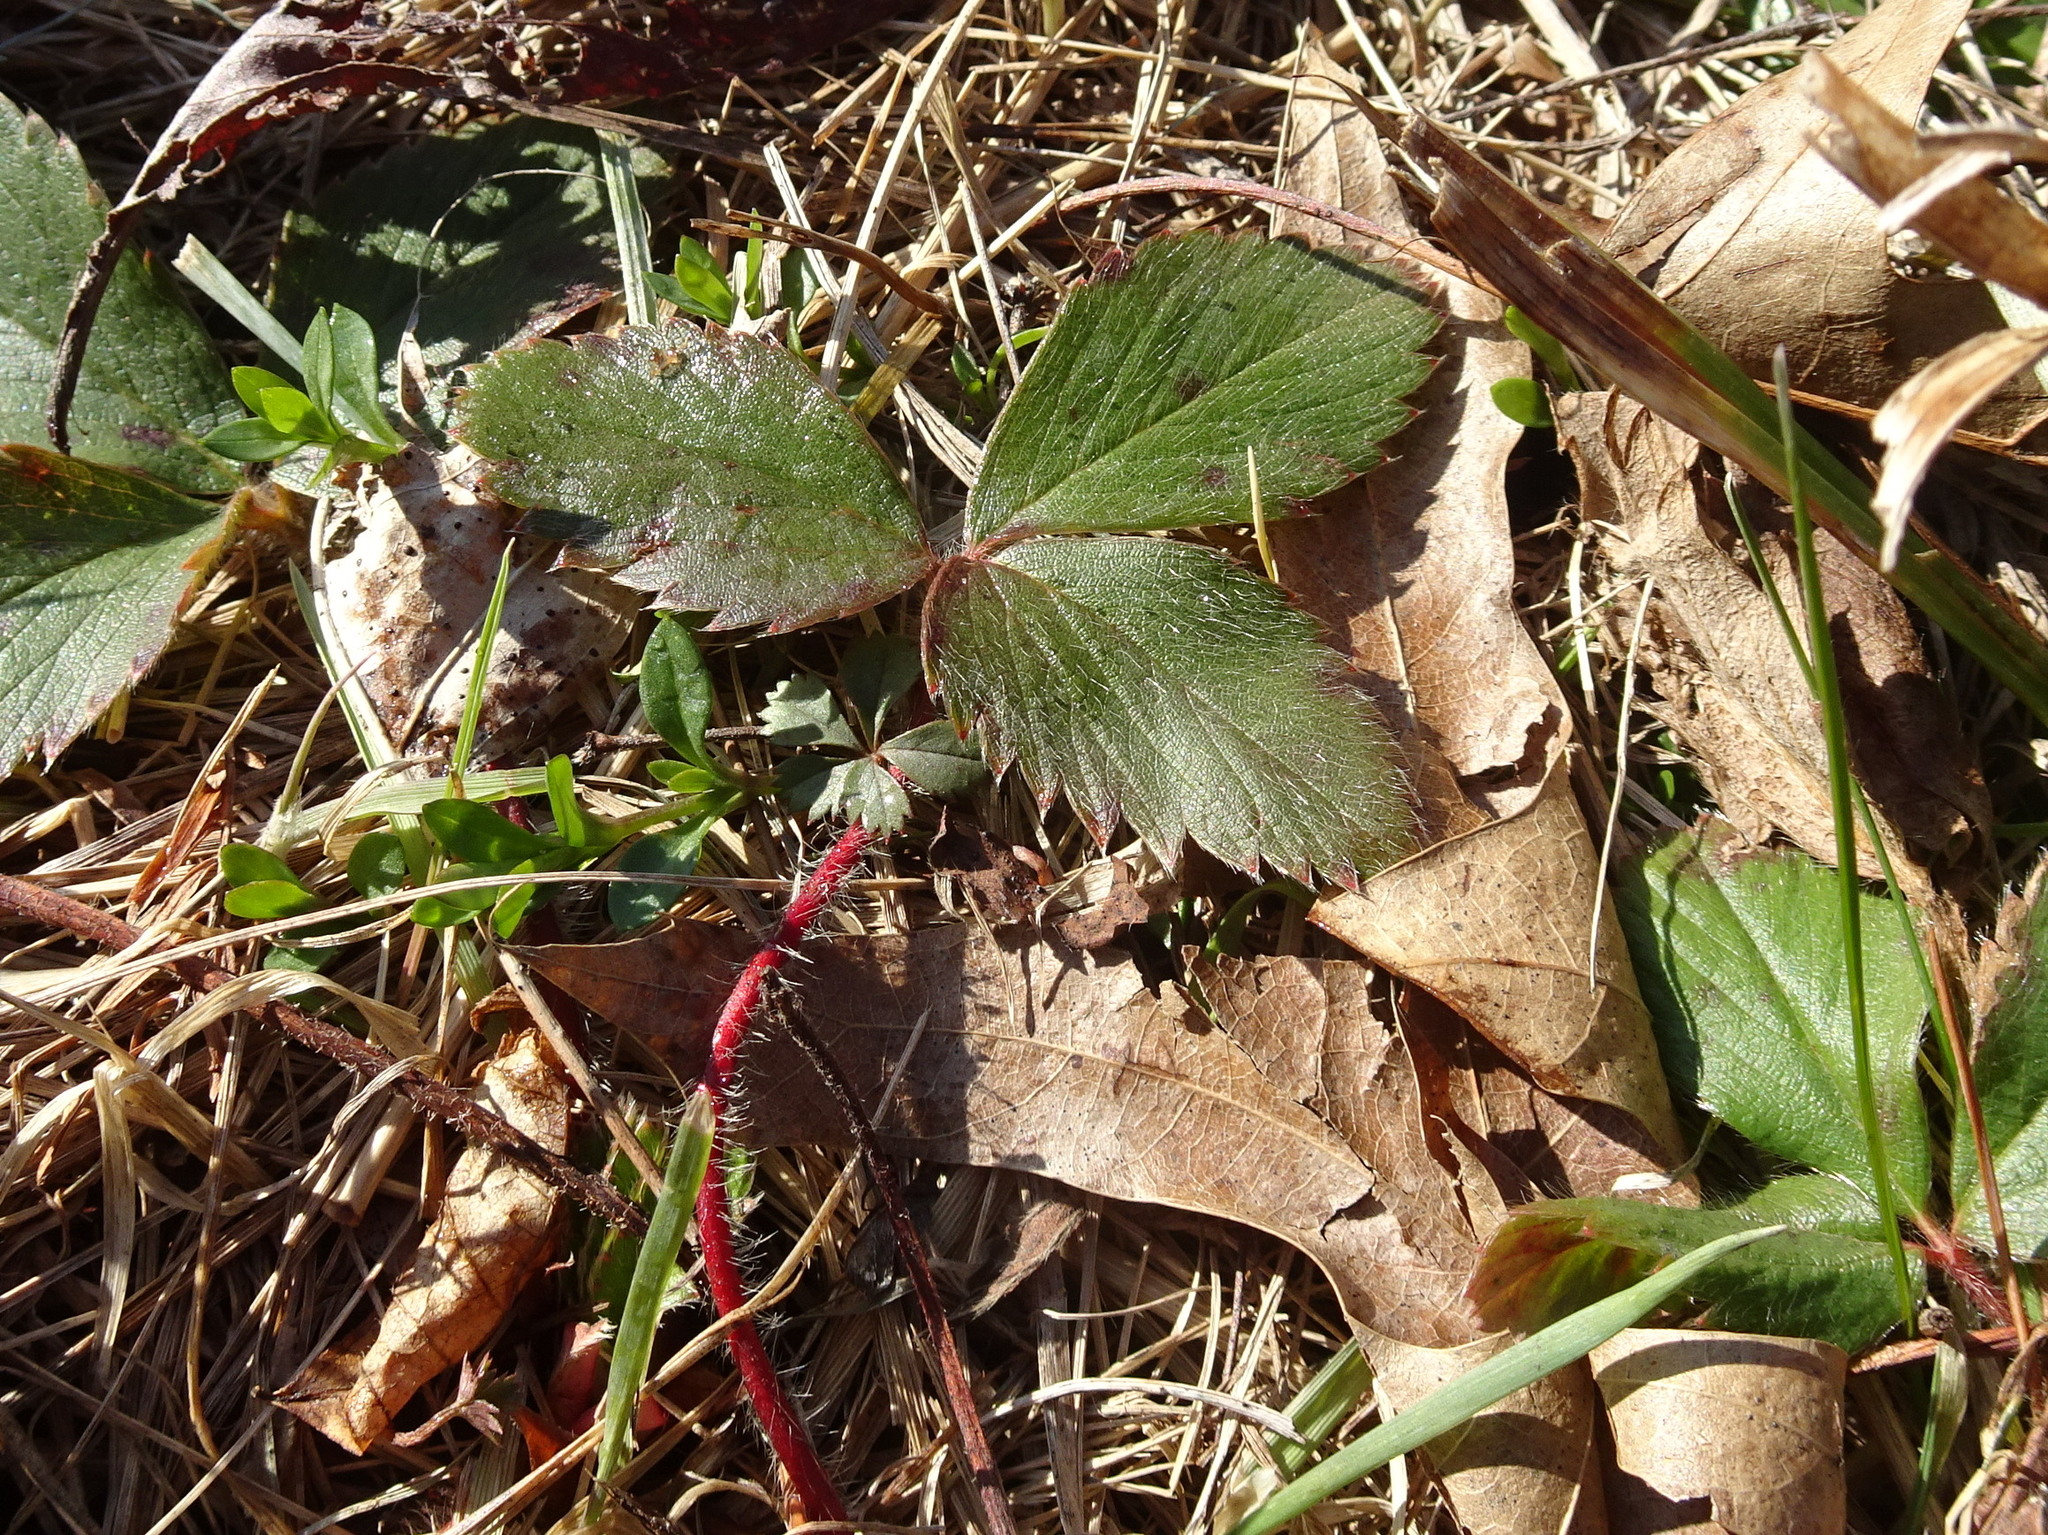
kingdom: Plantae
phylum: Tracheophyta
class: Magnoliopsida
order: Rosales
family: Rosaceae
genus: Fragaria
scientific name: Fragaria virginiana
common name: Thickleaved wild strawberry
